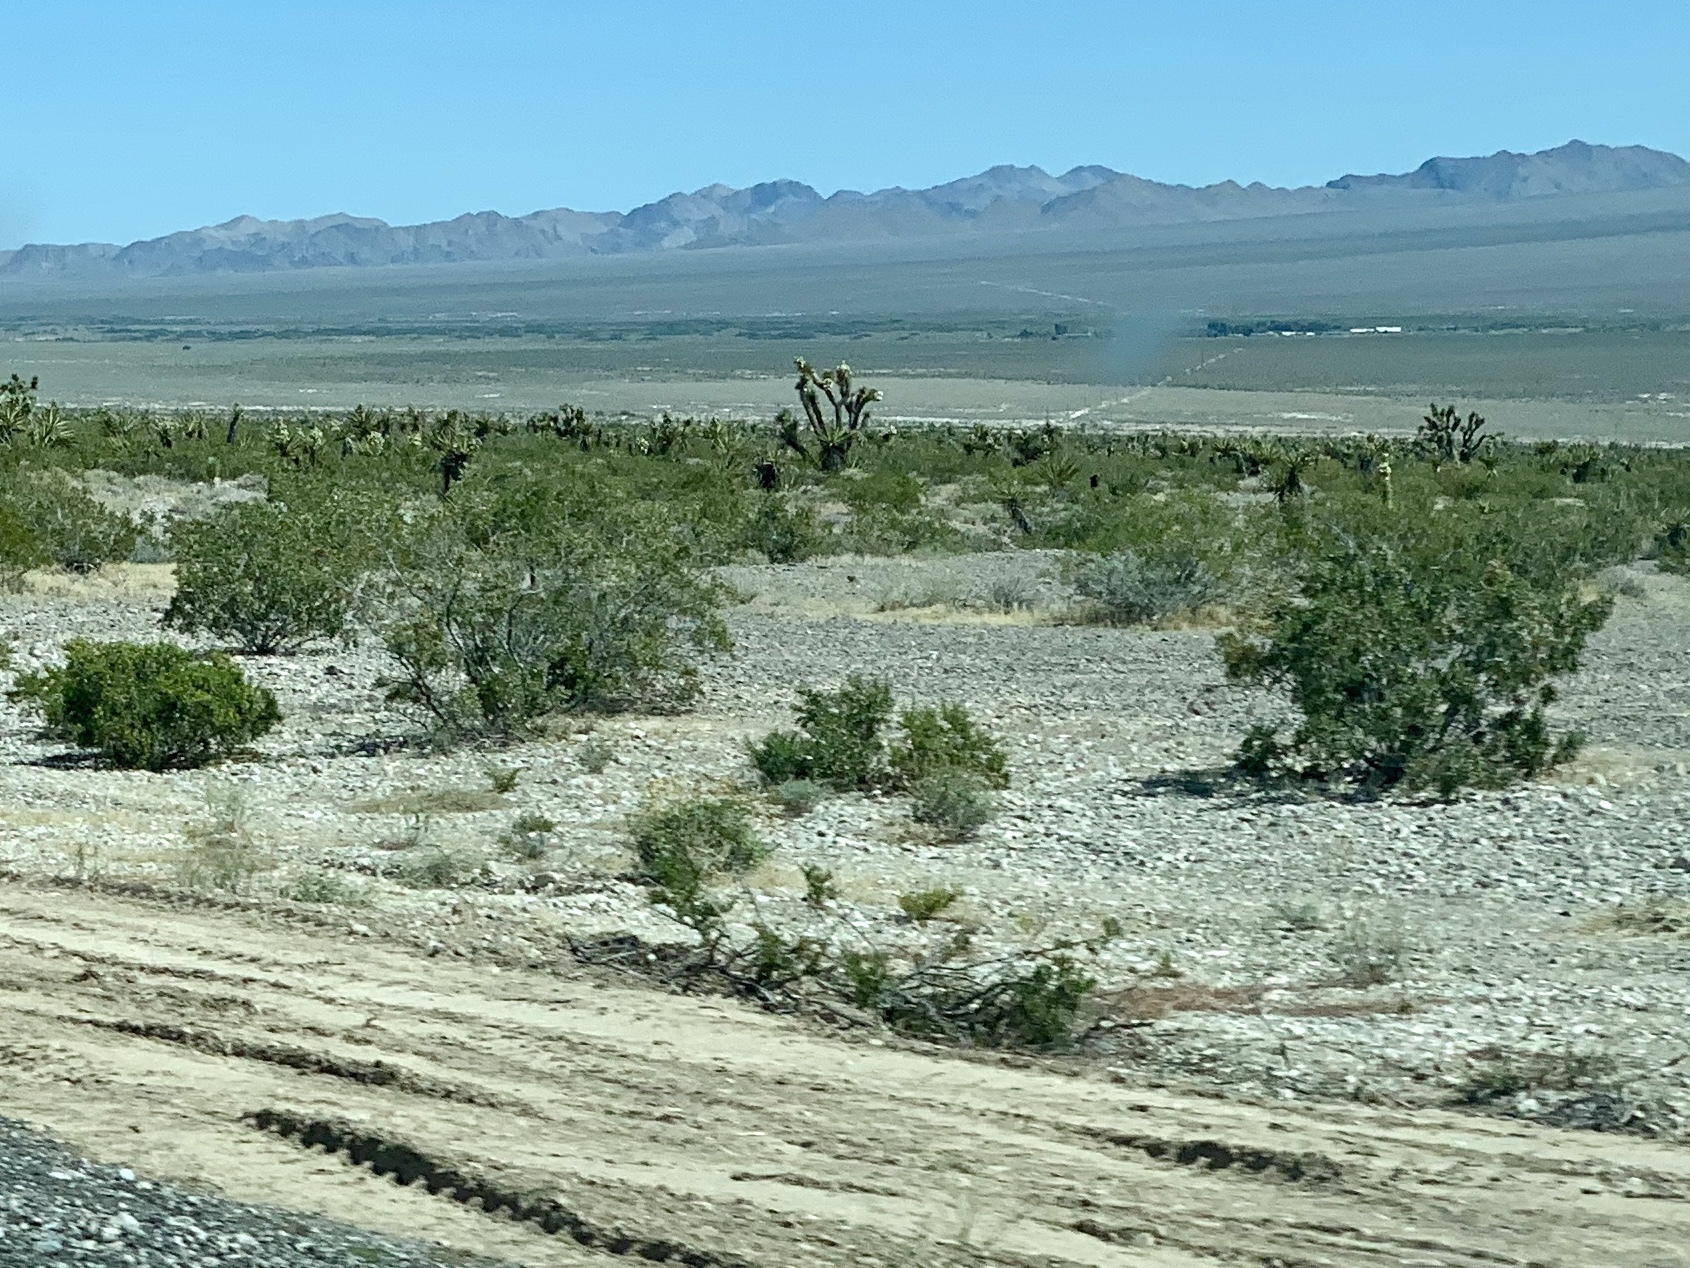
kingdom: Plantae
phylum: Tracheophyta
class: Magnoliopsida
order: Zygophyllales
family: Zygophyllaceae
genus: Larrea
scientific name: Larrea tridentata
